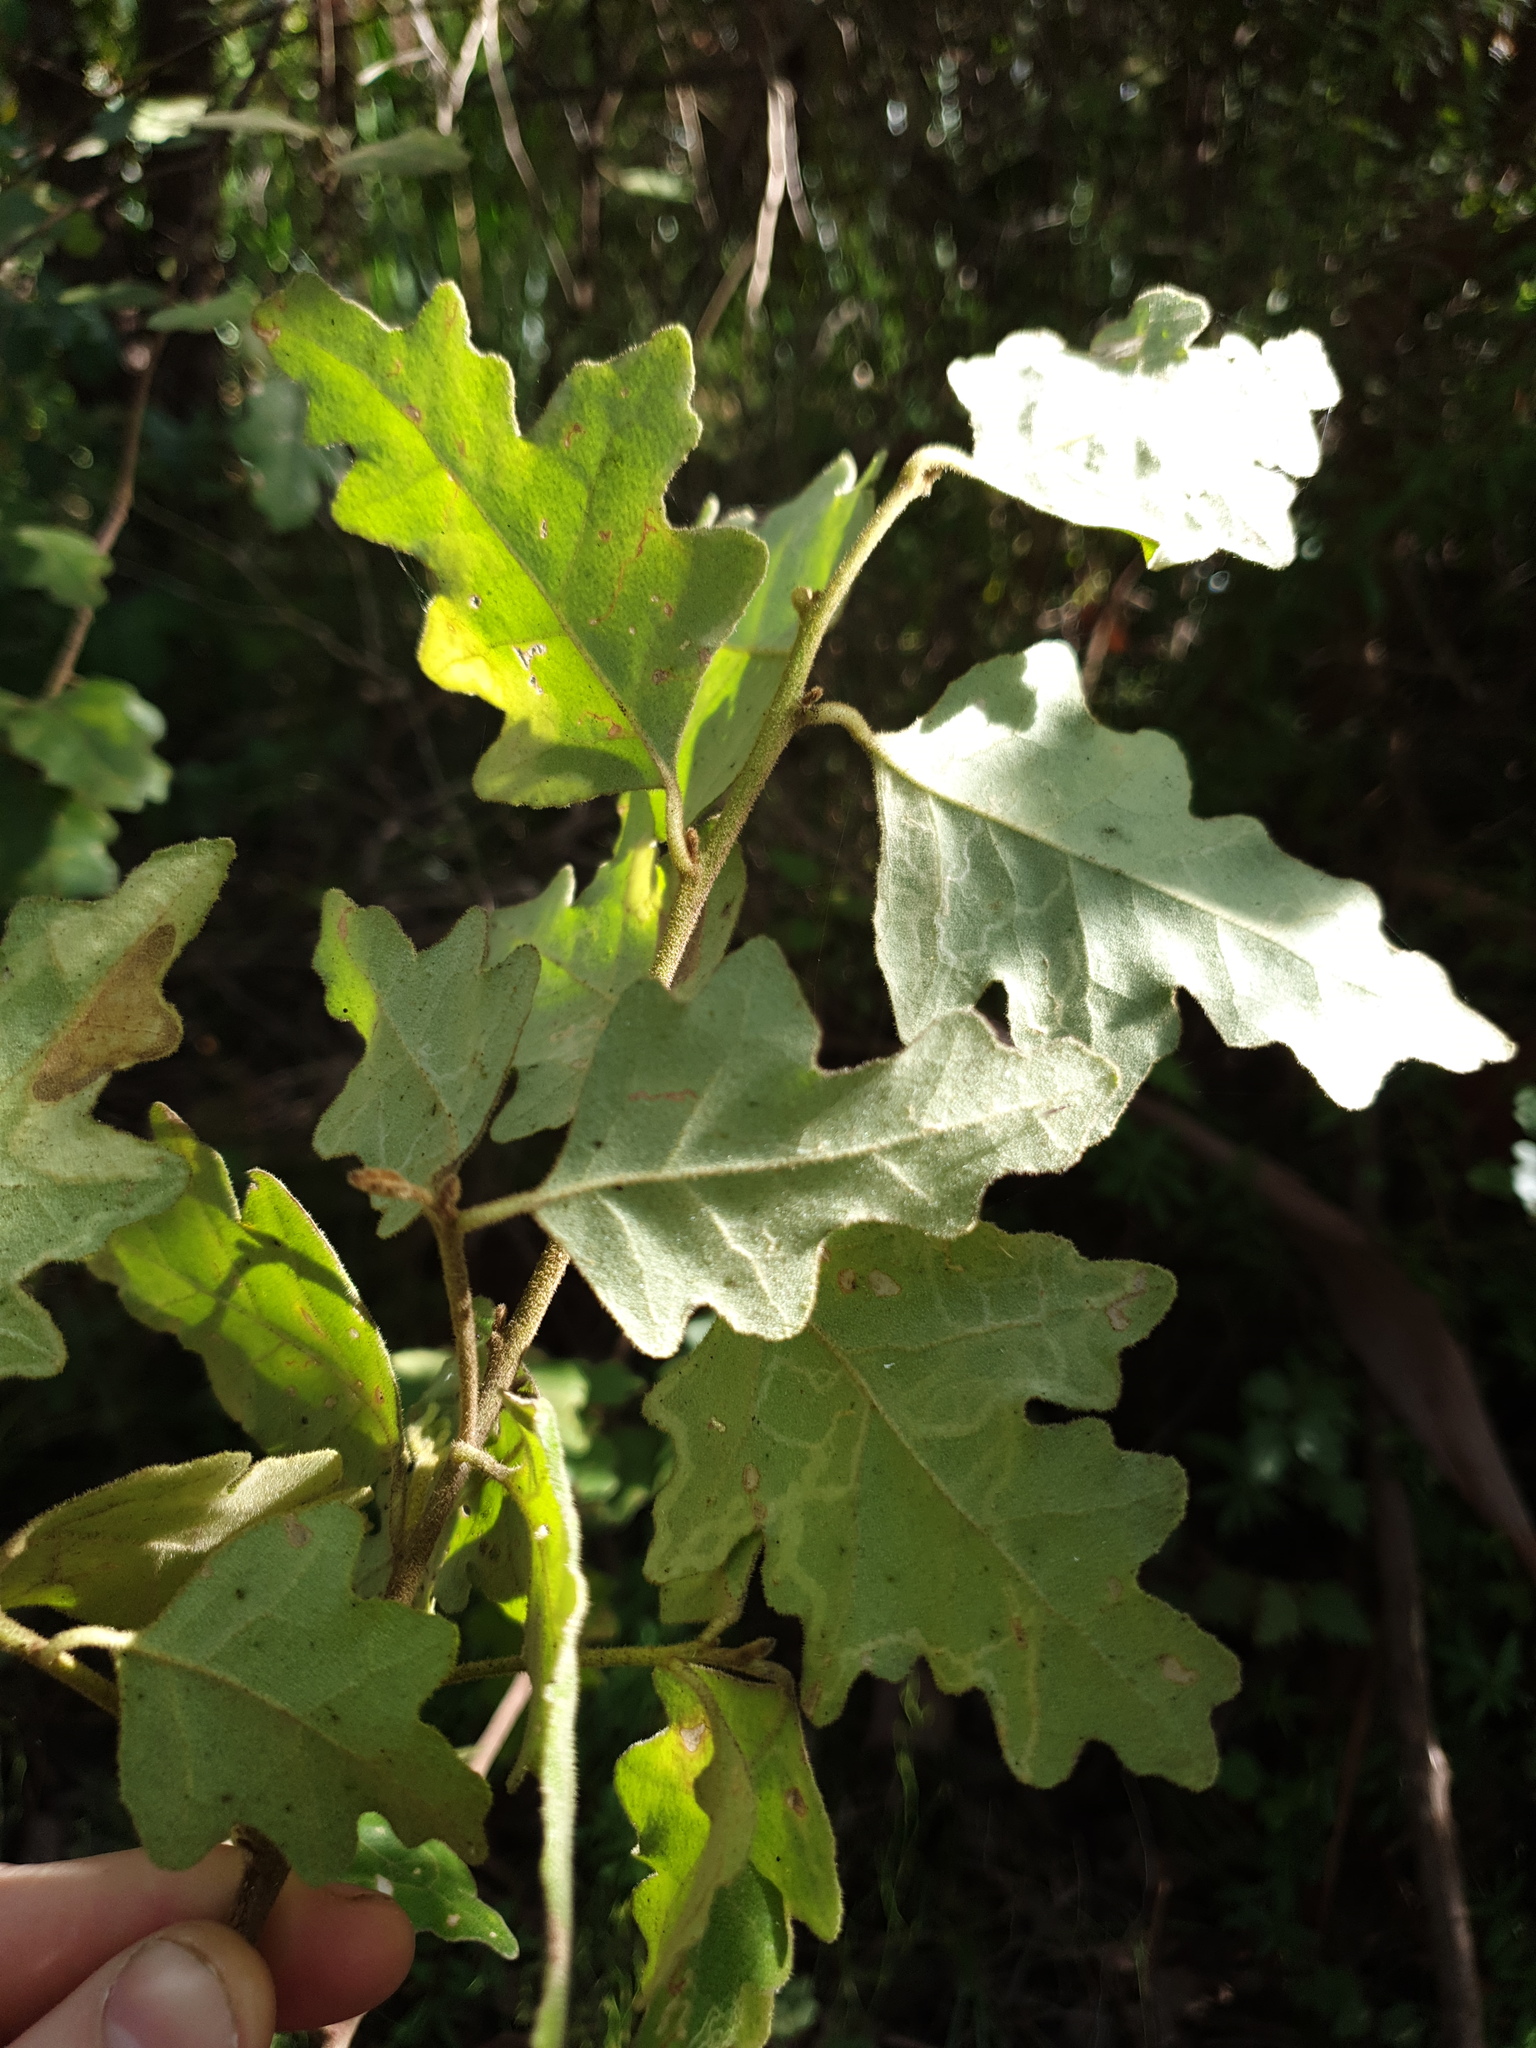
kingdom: Plantae
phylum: Tracheophyta
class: Magnoliopsida
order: Sapindales
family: Rutaceae
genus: Chorilaena
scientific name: Chorilaena quercifolia
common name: Wild hop
